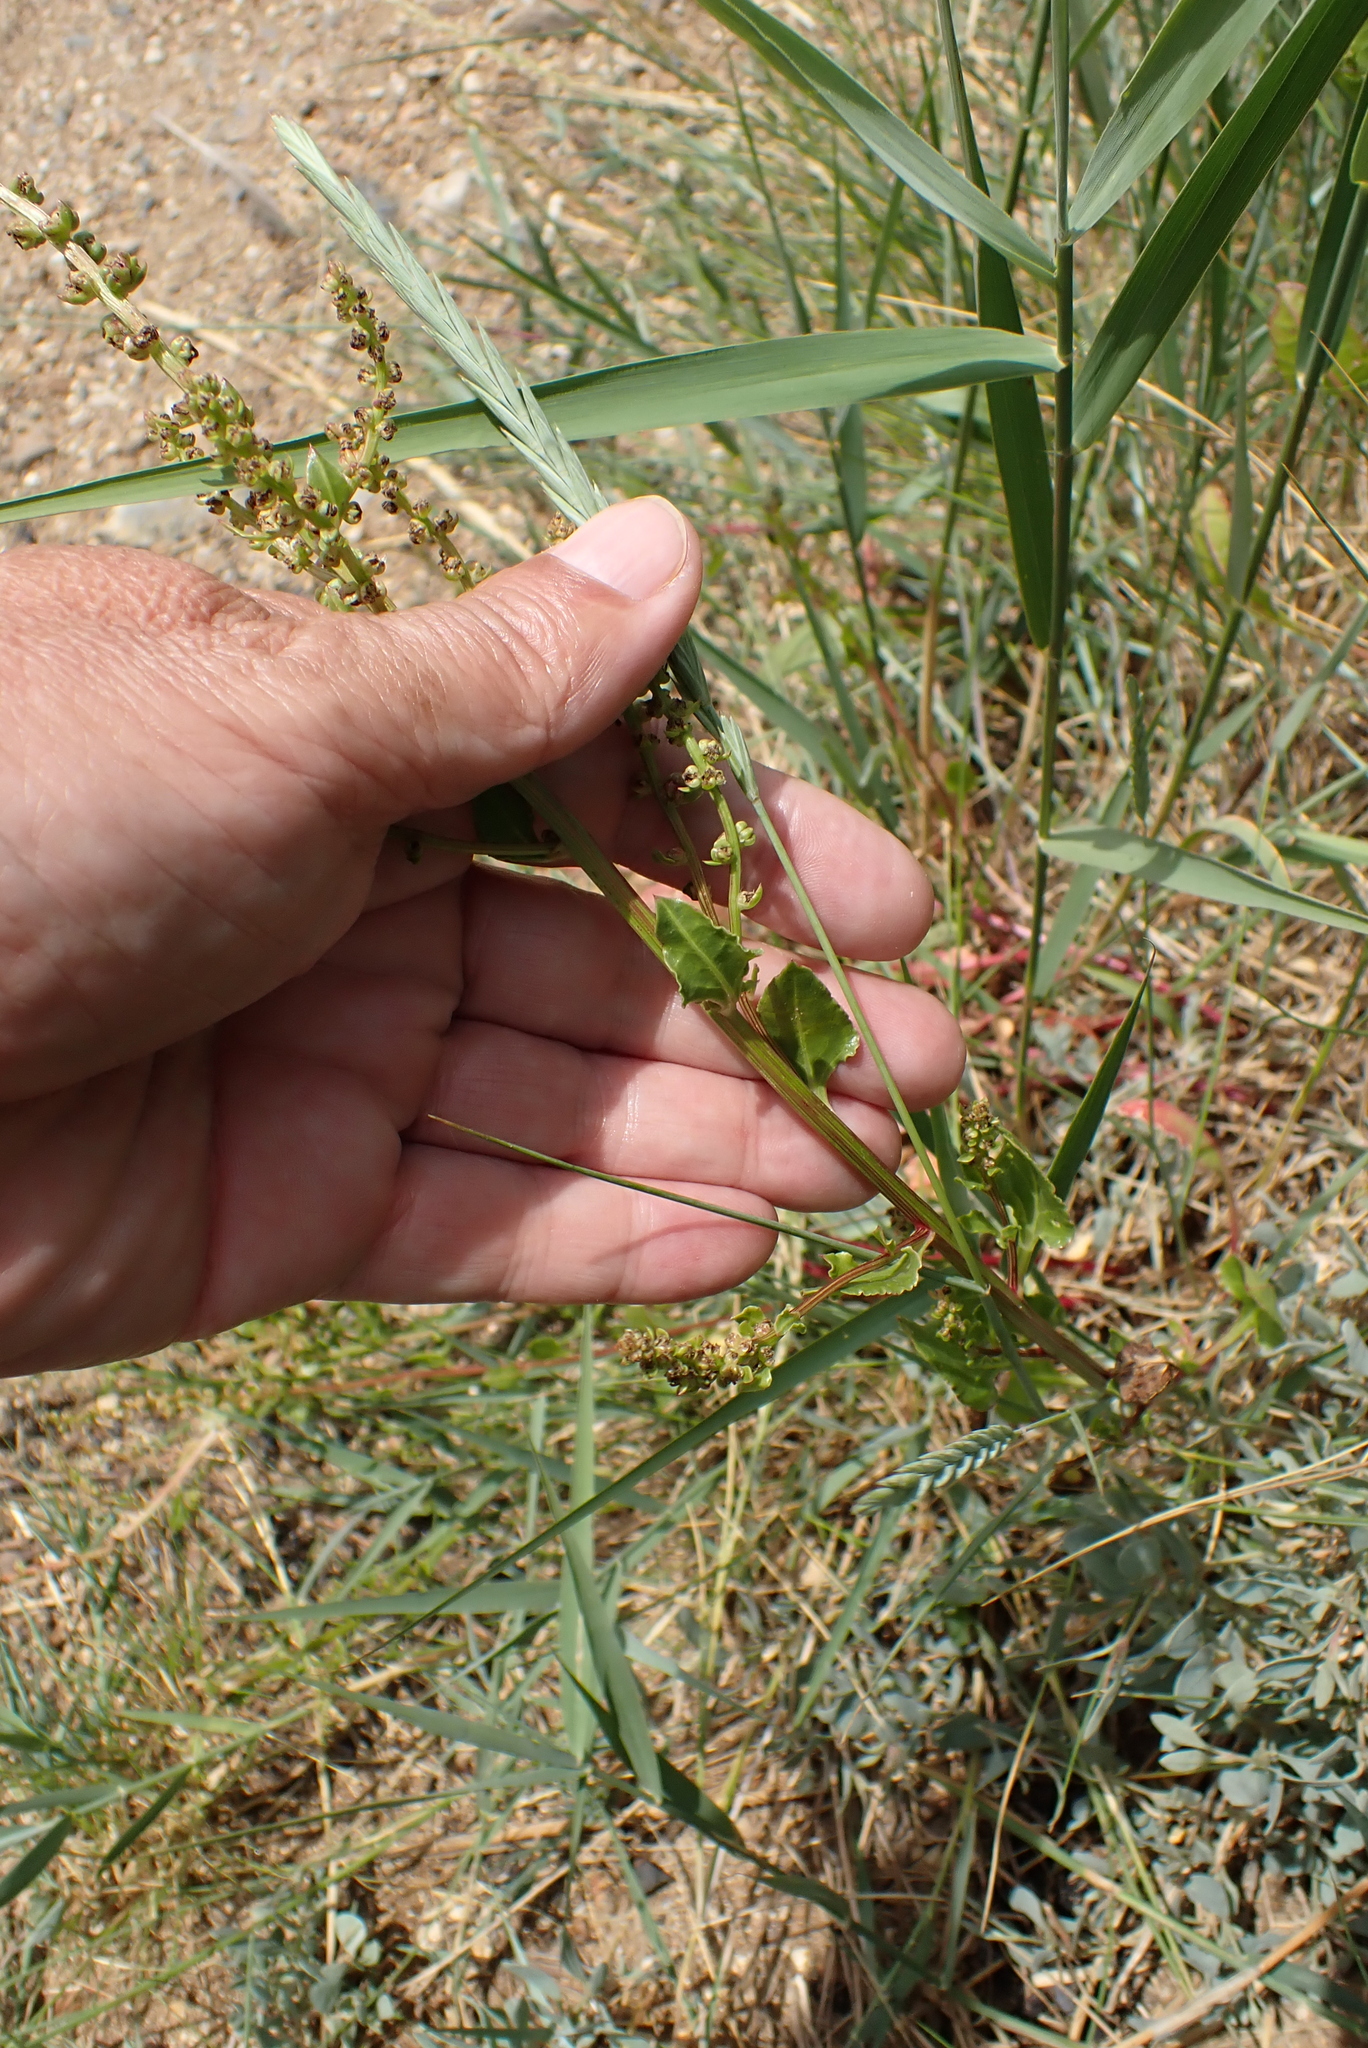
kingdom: Plantae
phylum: Tracheophyta
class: Magnoliopsida
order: Caryophyllales
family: Amaranthaceae
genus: Beta
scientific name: Beta vulgaris
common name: Beet
